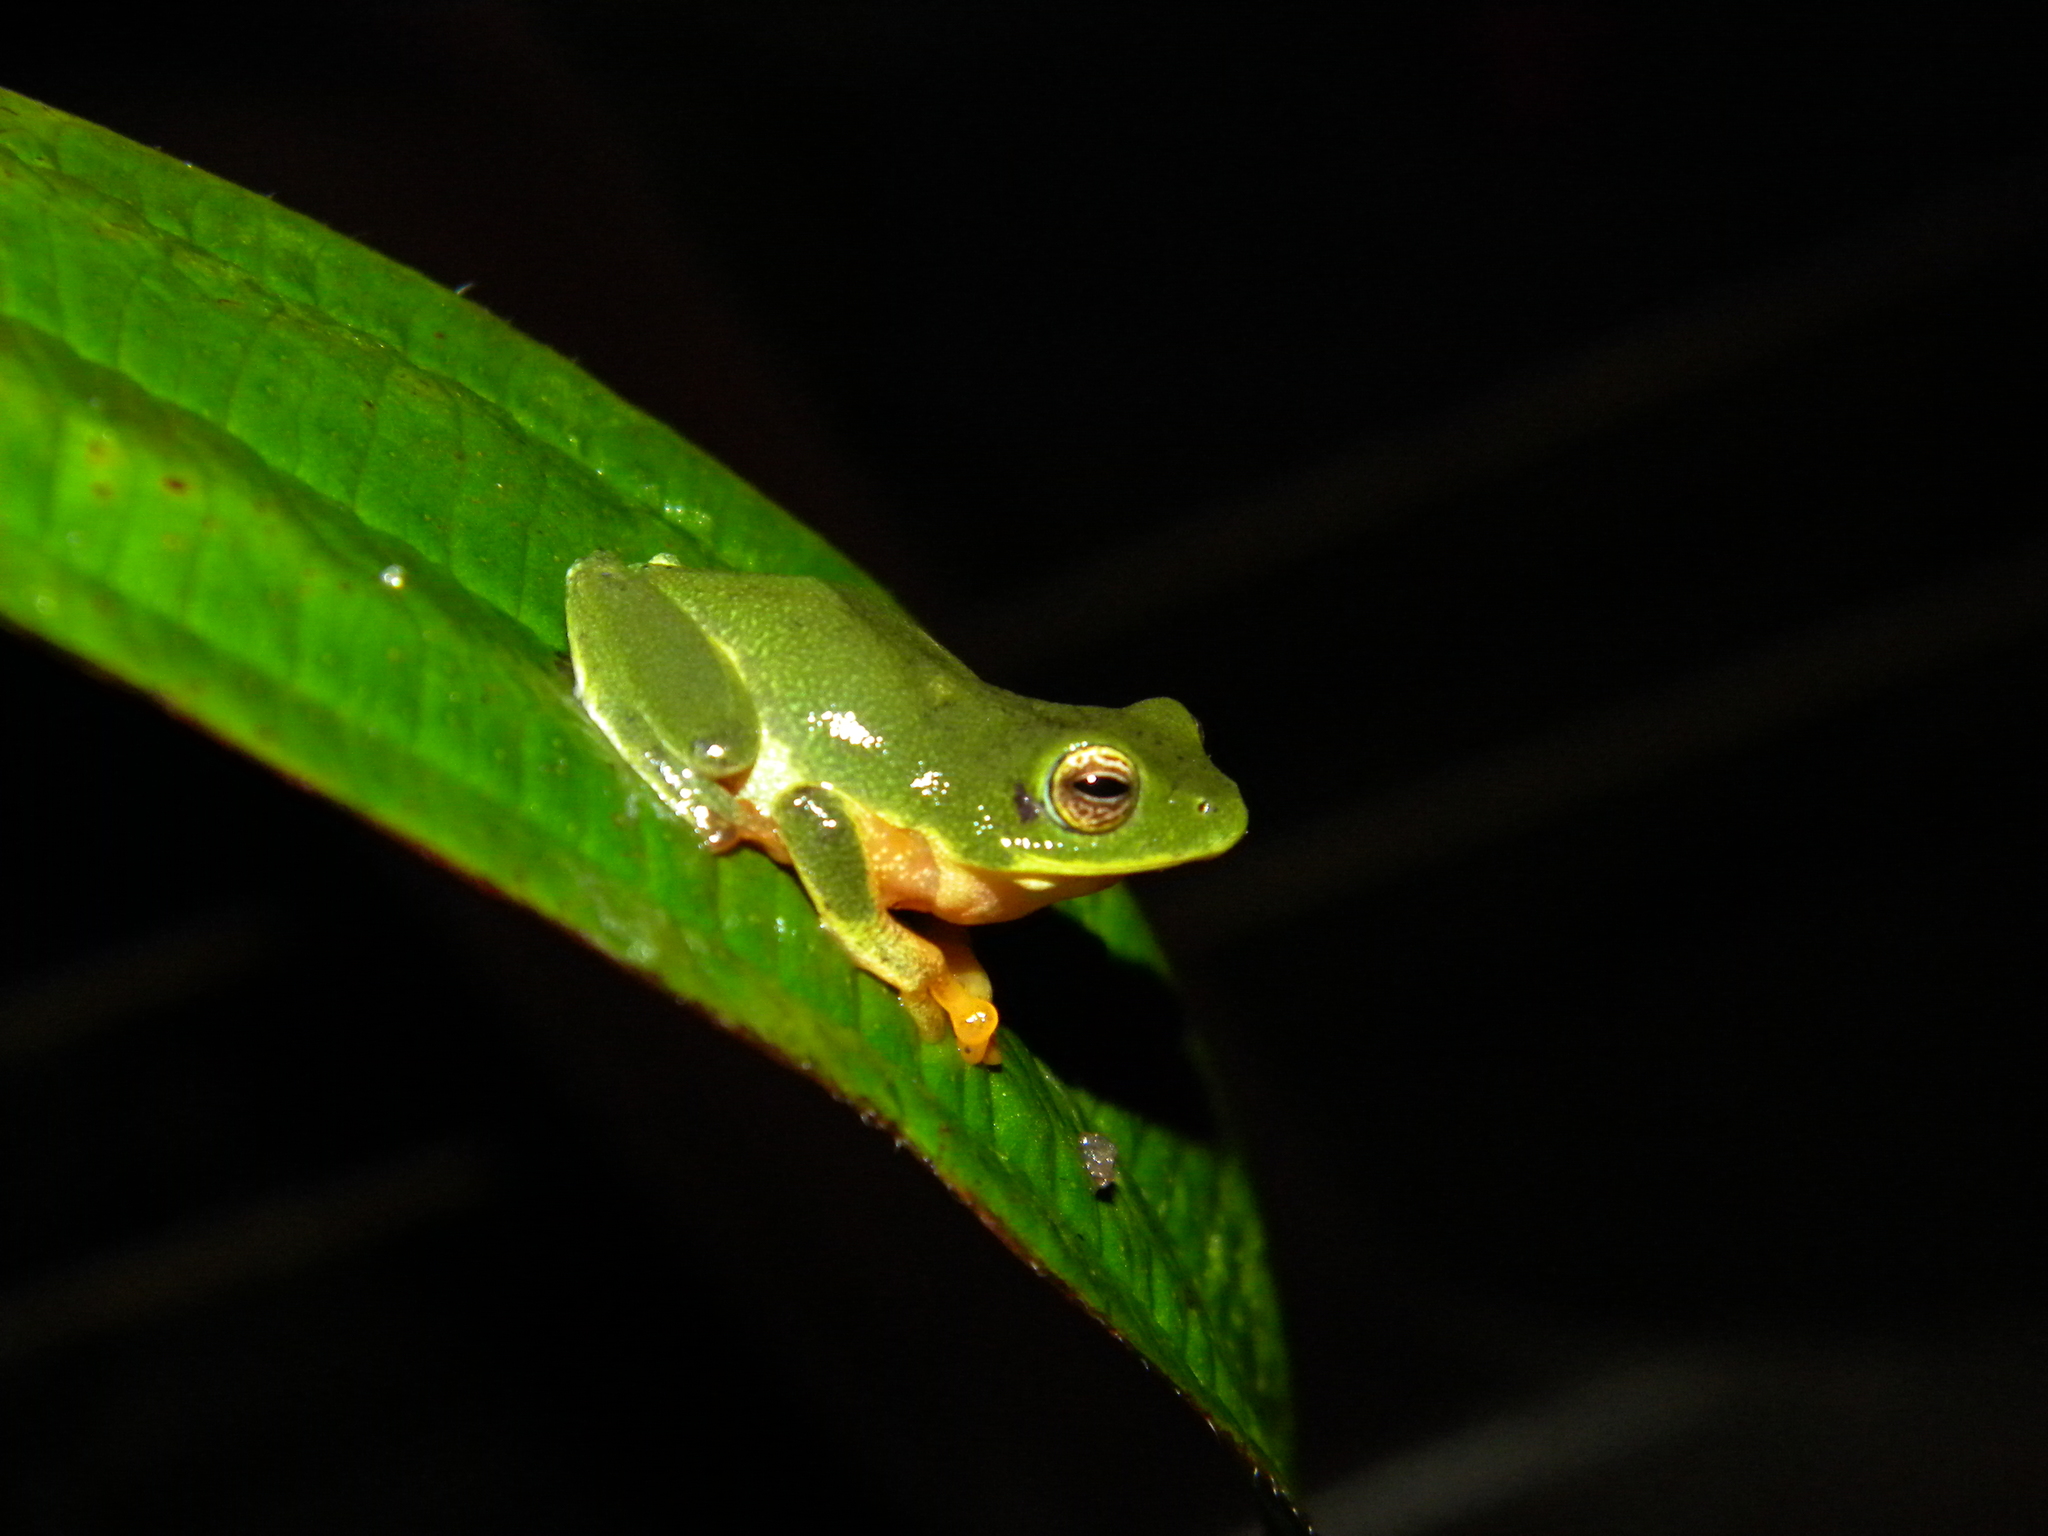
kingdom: Animalia
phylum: Chordata
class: Amphibia
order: Anura
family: Rhacophoridae
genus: Raorchestes
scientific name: Raorchestes bobingeri
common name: Bob inger's bush frog
